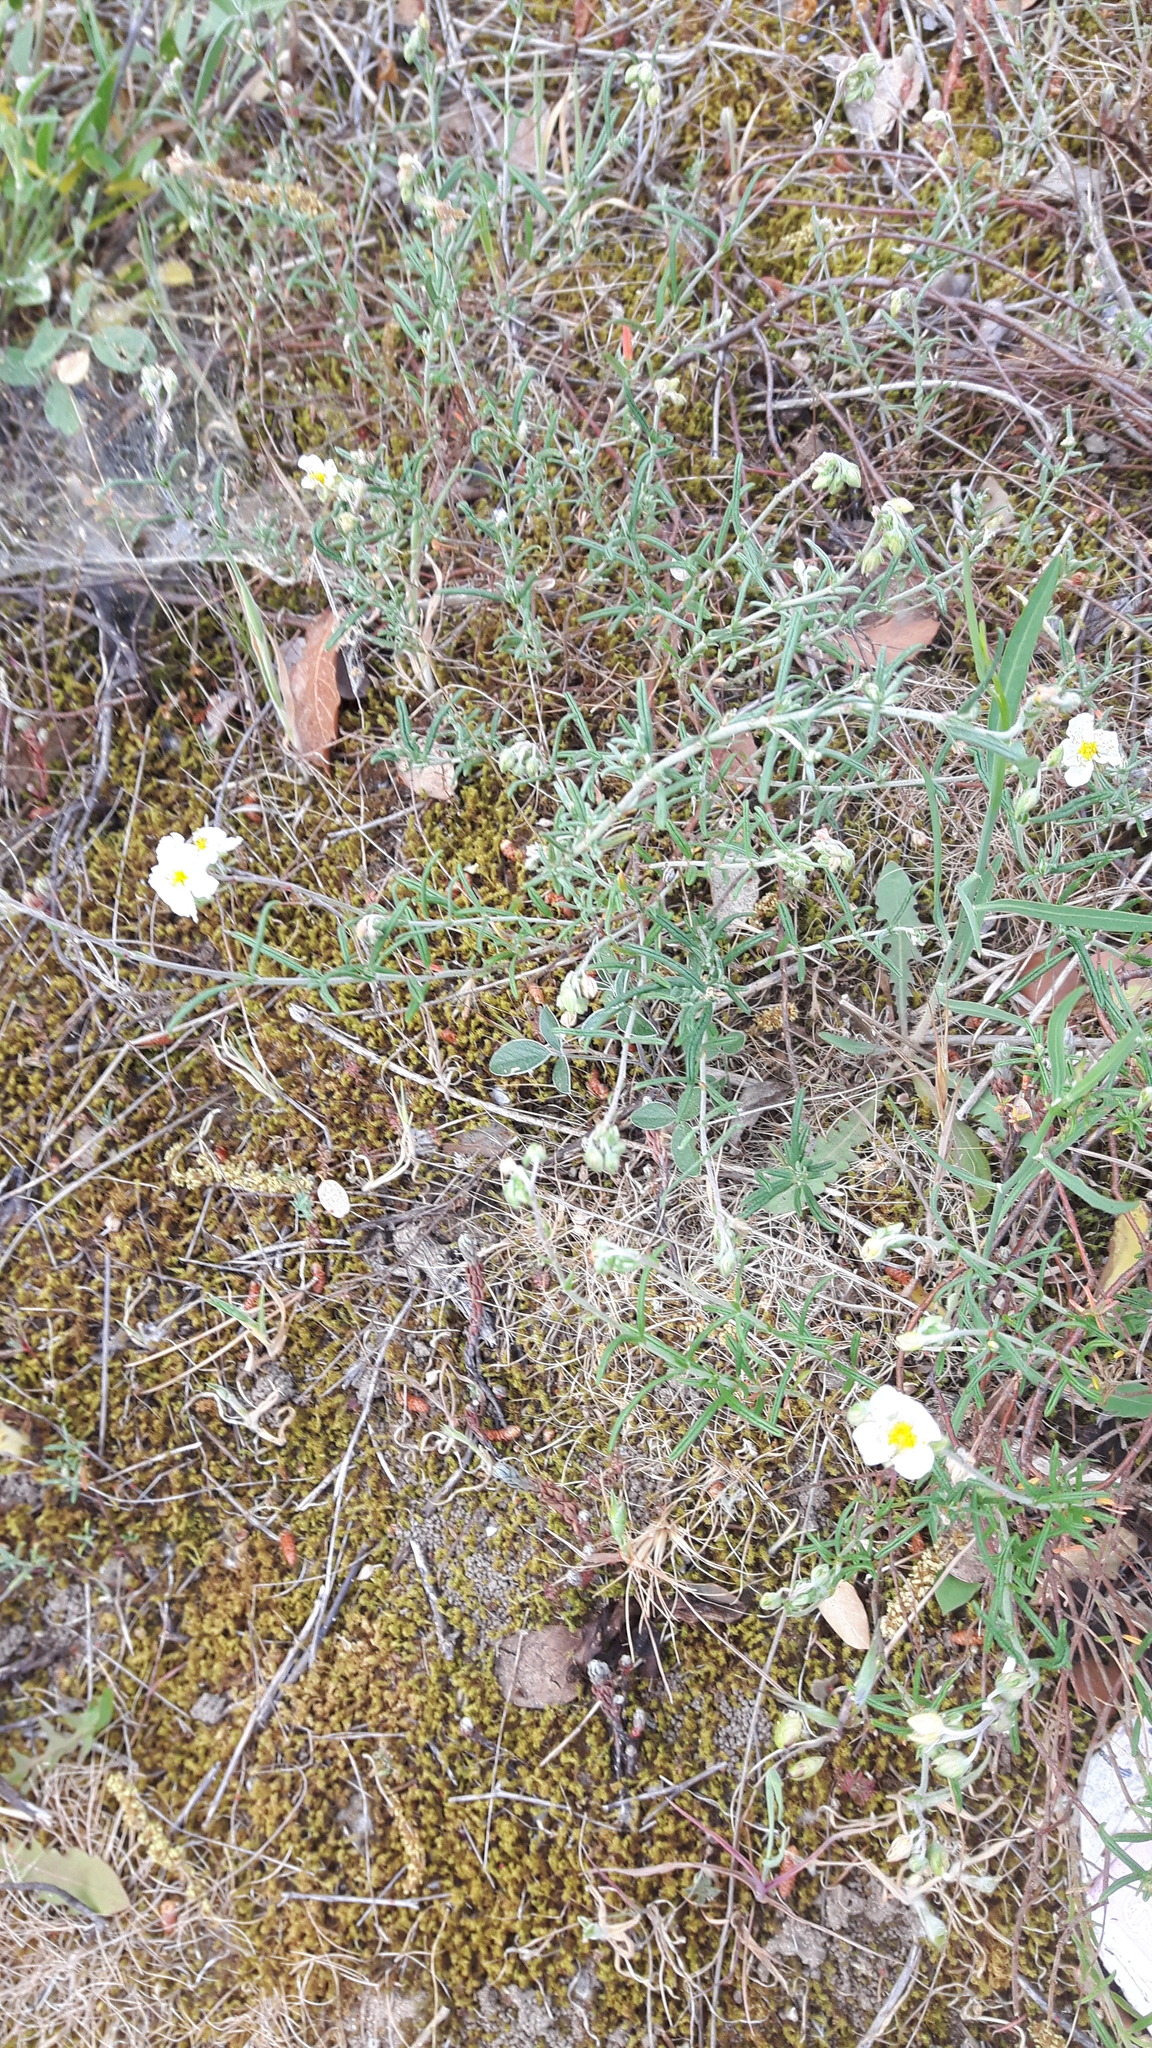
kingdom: Plantae
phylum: Tracheophyta
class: Magnoliopsida
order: Malvales
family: Cistaceae
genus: Cistus
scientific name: Cistus salviifolius
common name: Salvia cistus
